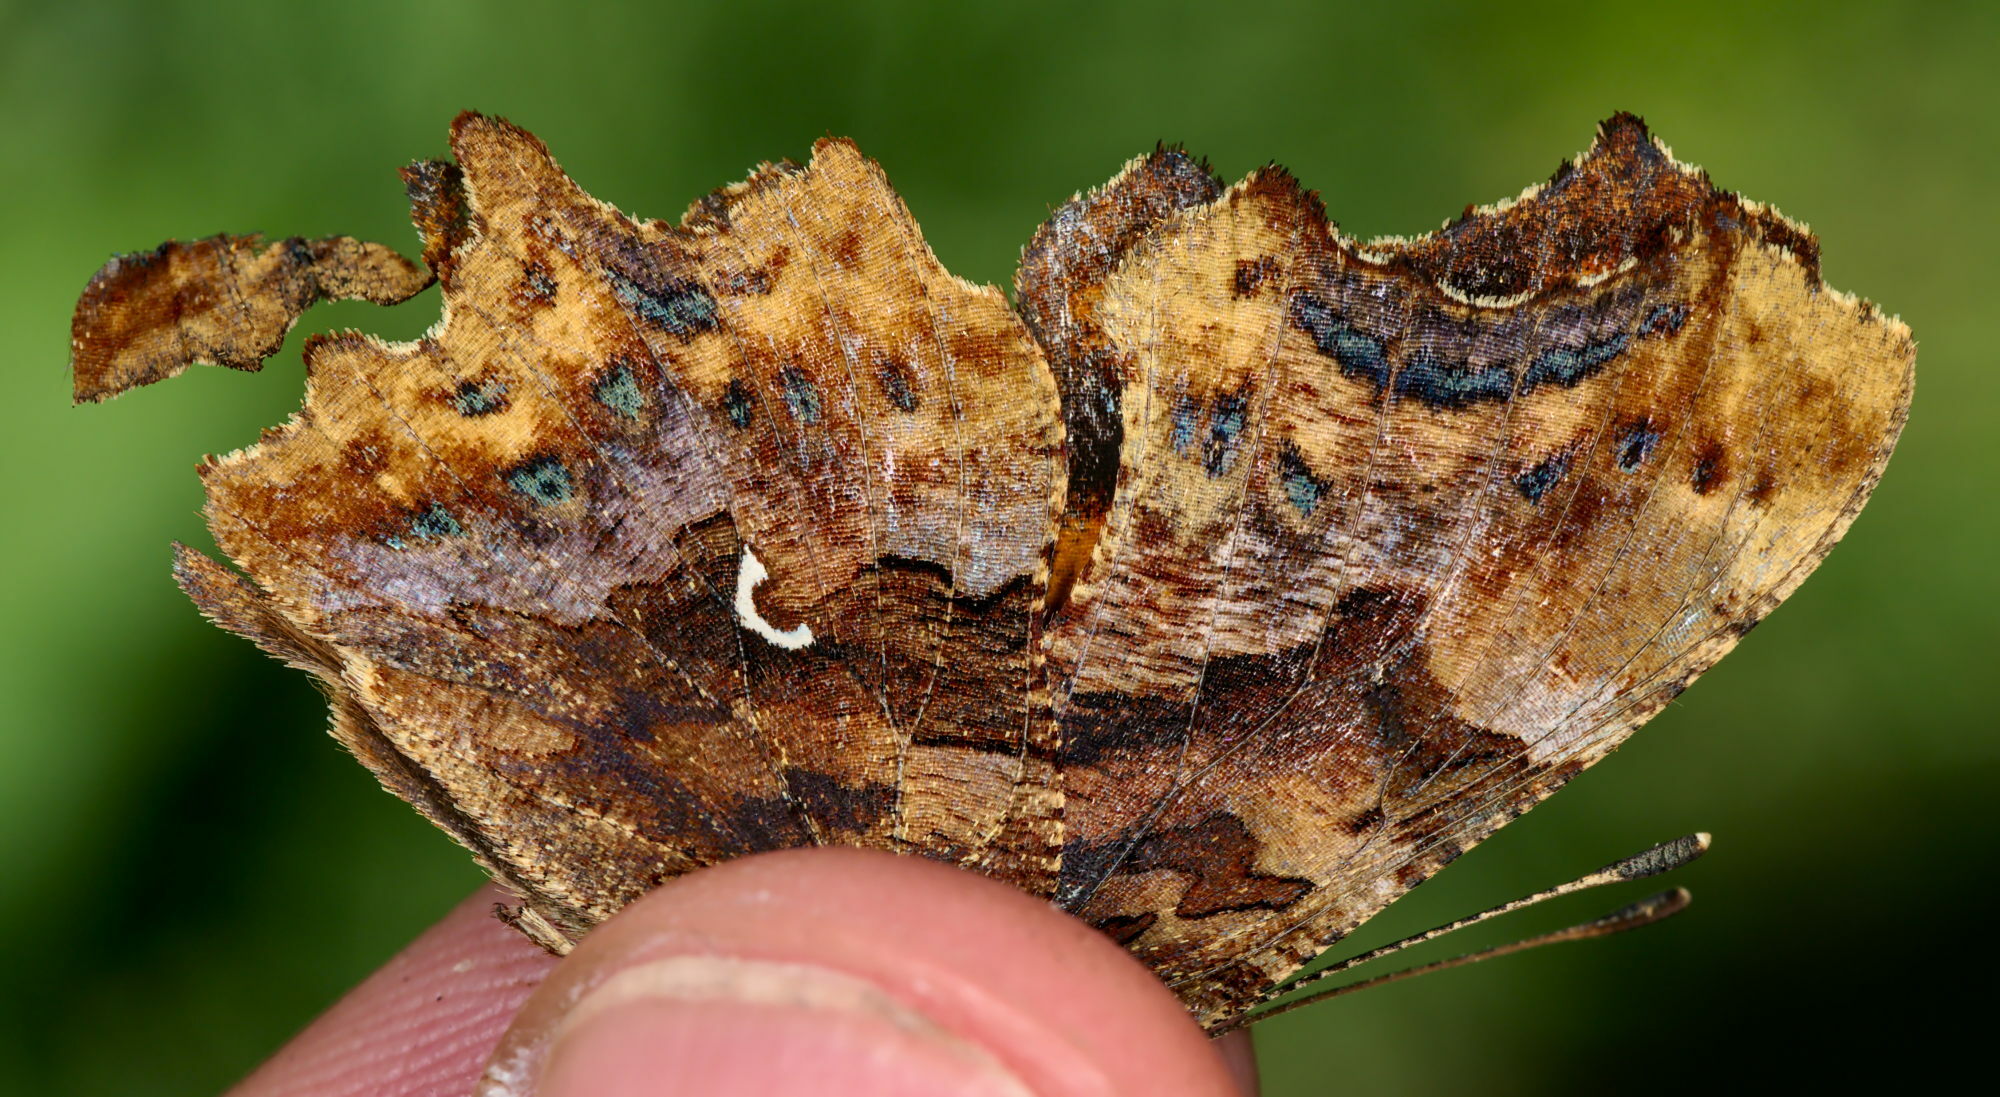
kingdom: Animalia
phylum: Arthropoda
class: Insecta
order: Lepidoptera
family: Nymphalidae
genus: Polygonia
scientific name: Polygonia c-album
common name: Comma
